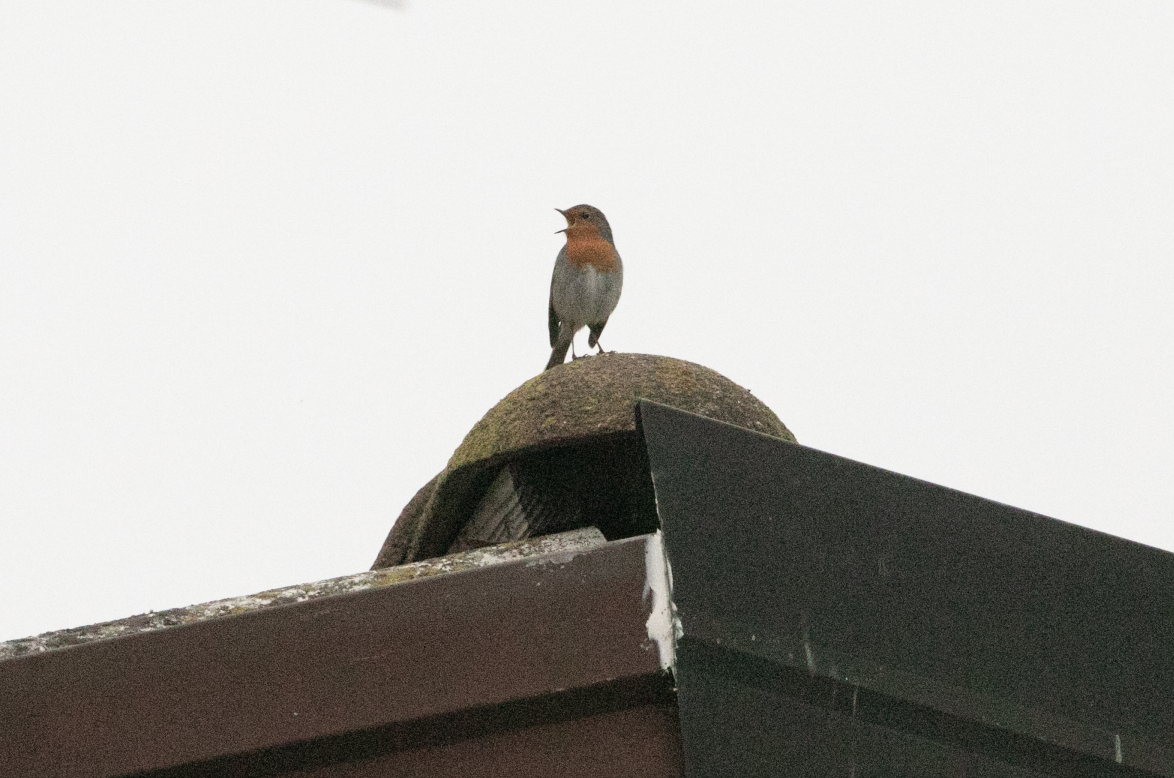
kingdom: Animalia
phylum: Chordata
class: Aves
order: Passeriformes
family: Muscicapidae
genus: Erithacus
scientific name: Erithacus rubecula
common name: European robin
